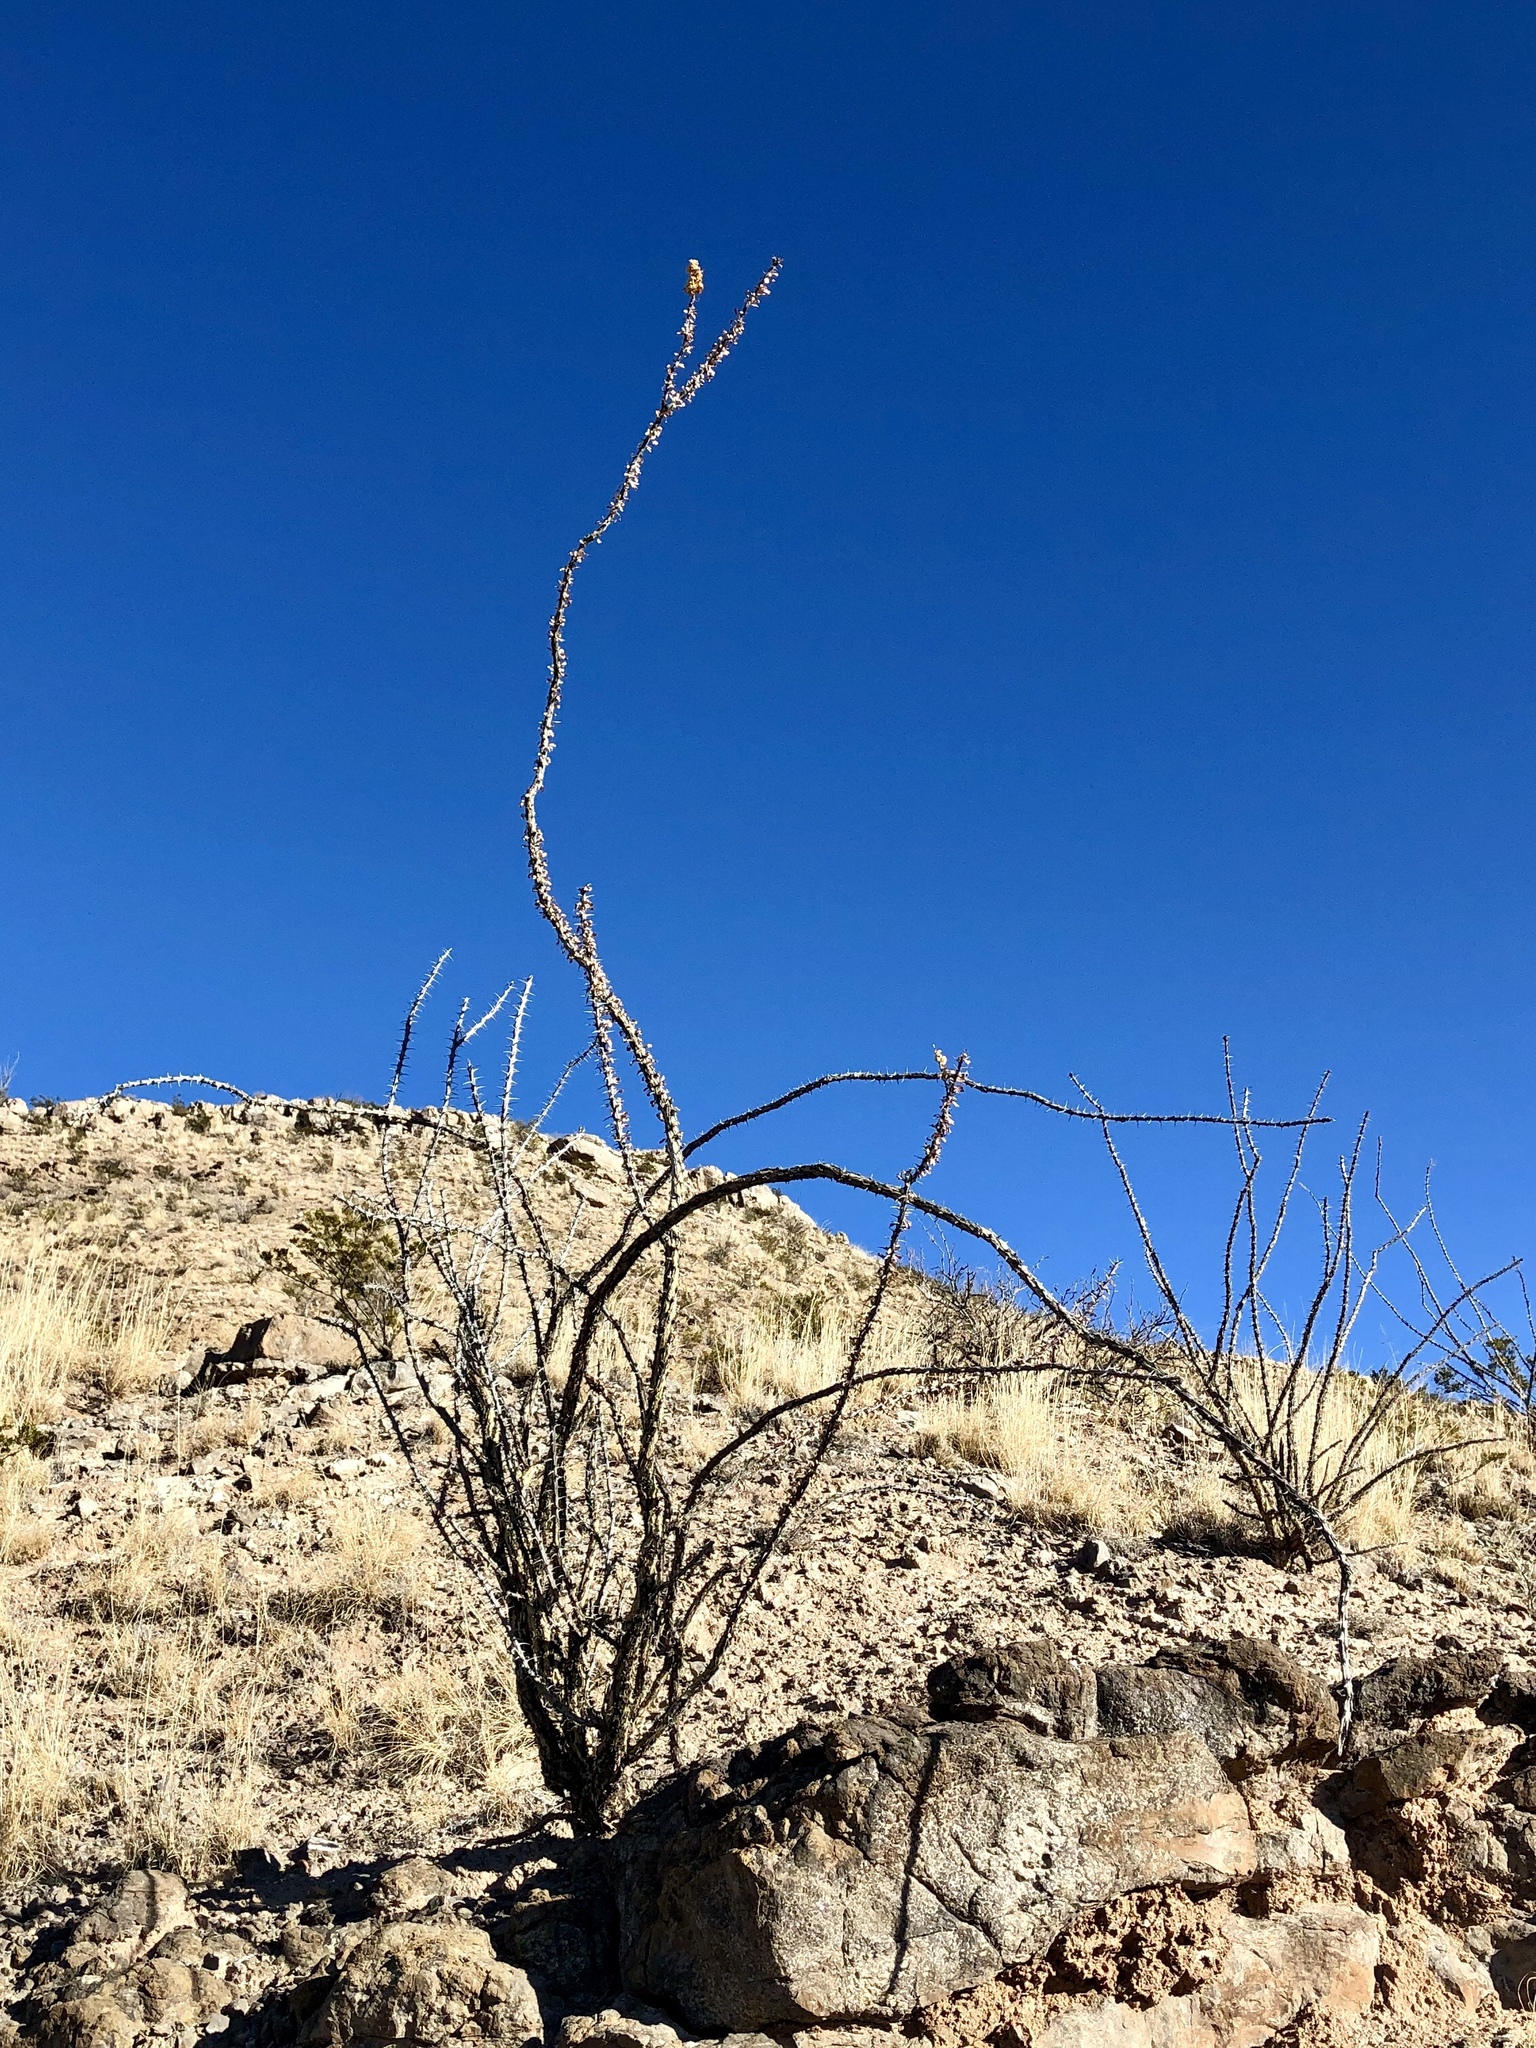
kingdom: Plantae
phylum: Tracheophyta
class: Magnoliopsida
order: Ericales
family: Fouquieriaceae
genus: Fouquieria
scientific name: Fouquieria splendens
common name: Vine-cactus
